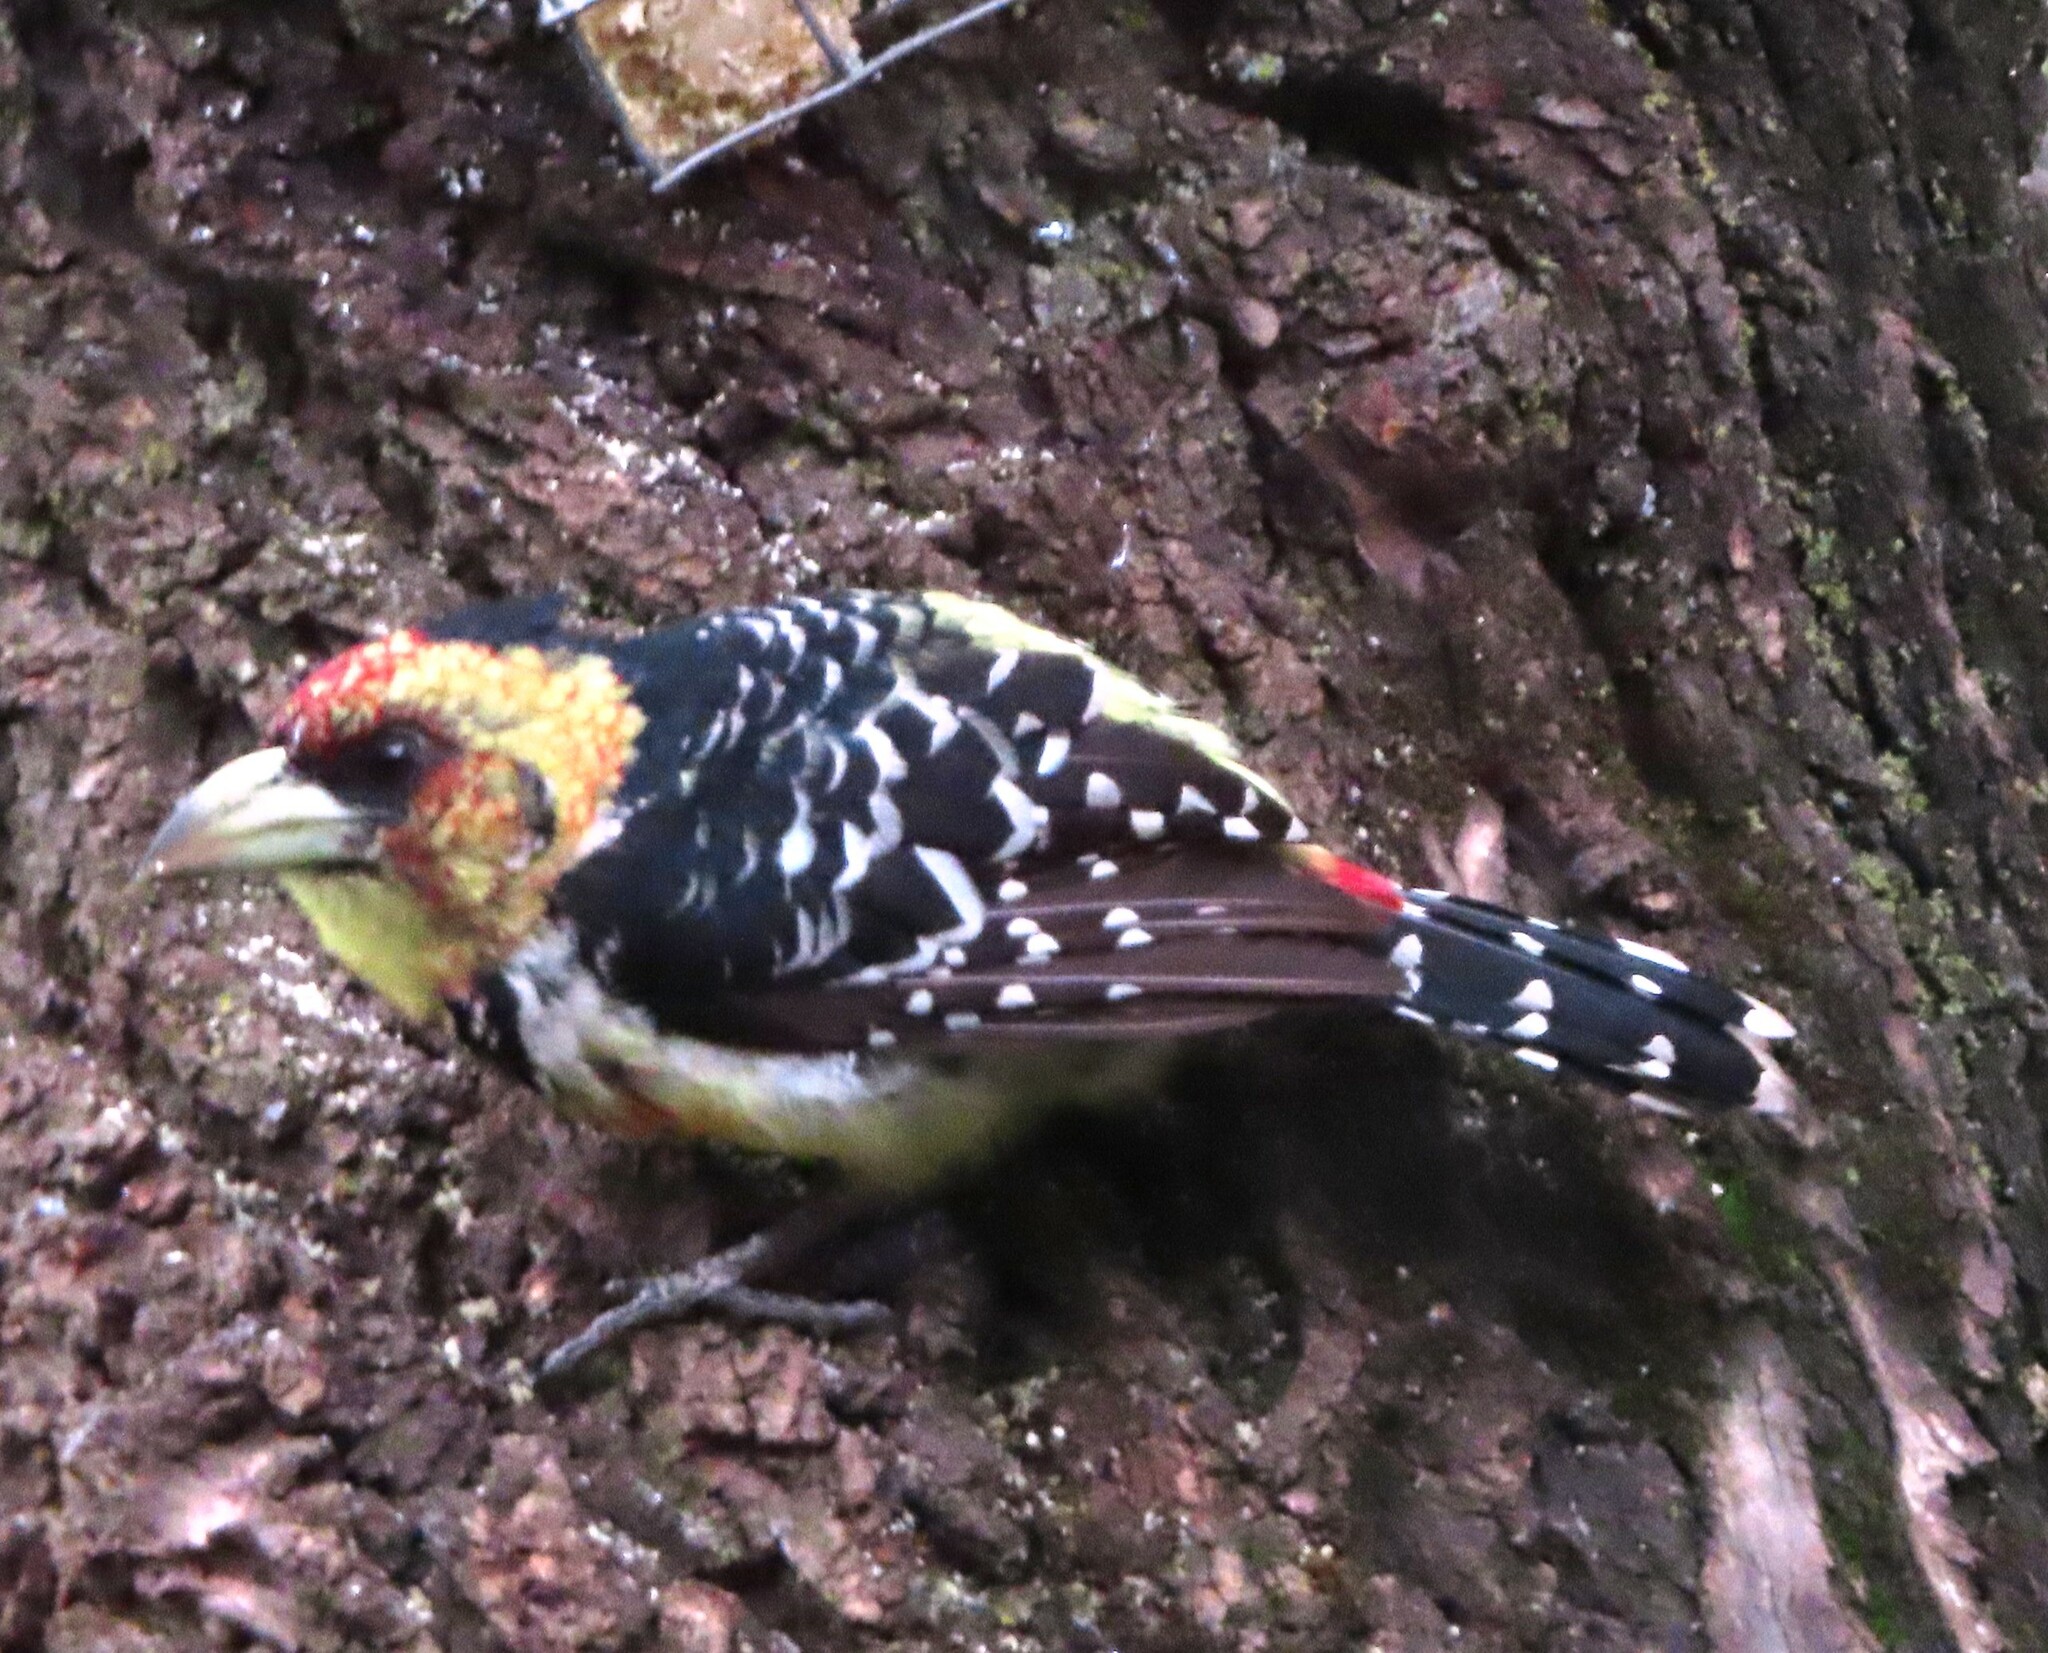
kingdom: Animalia
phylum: Chordata
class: Aves
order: Piciformes
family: Lybiidae
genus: Trachyphonus
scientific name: Trachyphonus vaillantii
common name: Crested barbet
